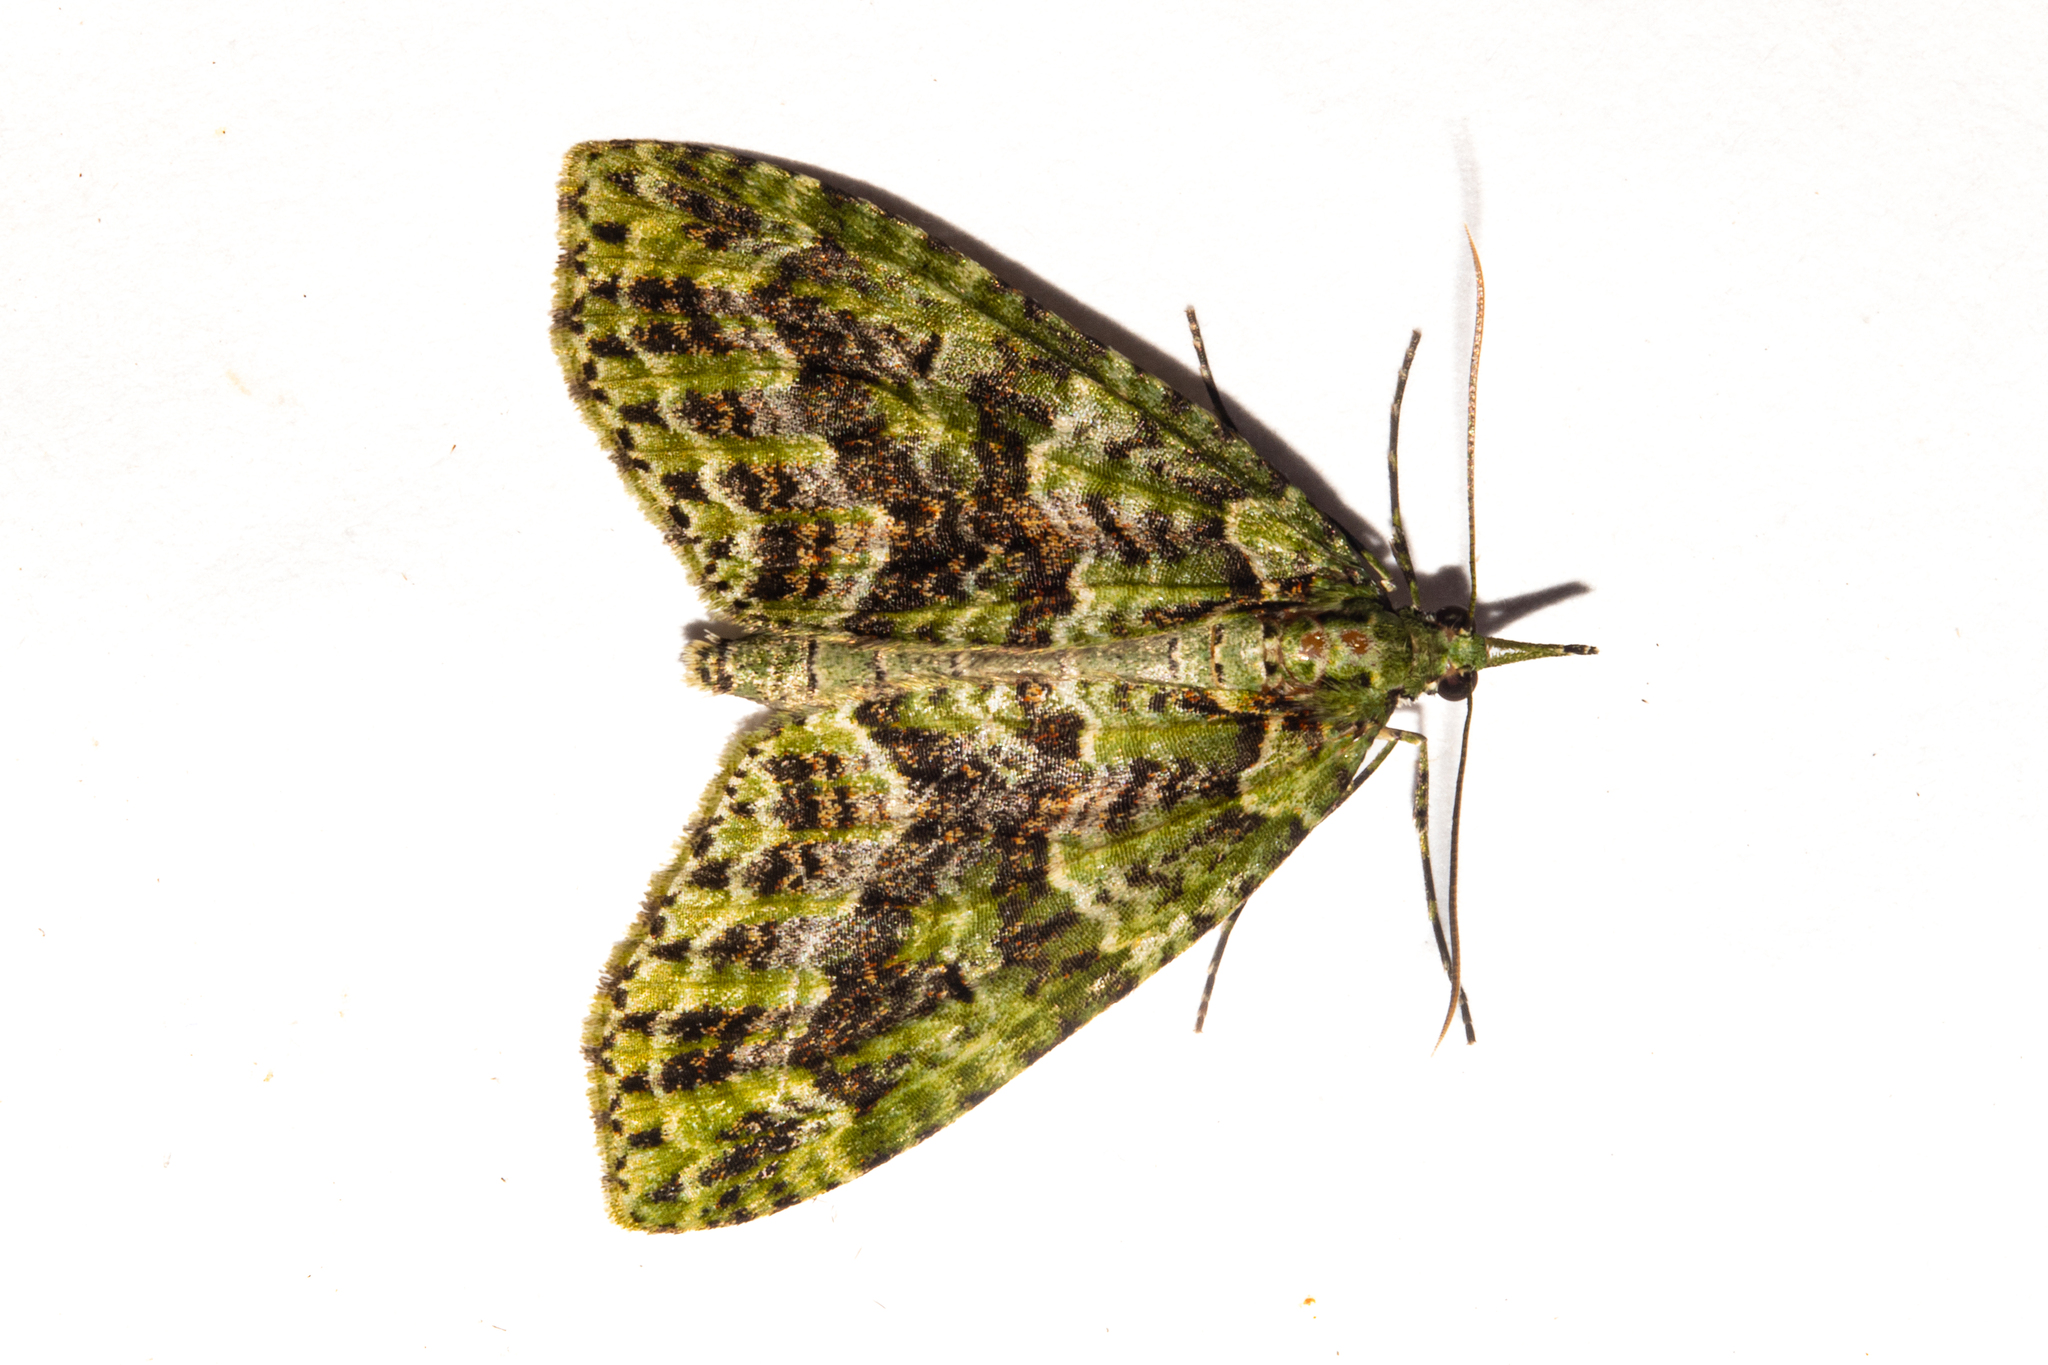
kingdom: Animalia
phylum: Arthropoda
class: Insecta
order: Lepidoptera
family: Geometridae
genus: Tatosoma
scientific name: Tatosoma tipulata
